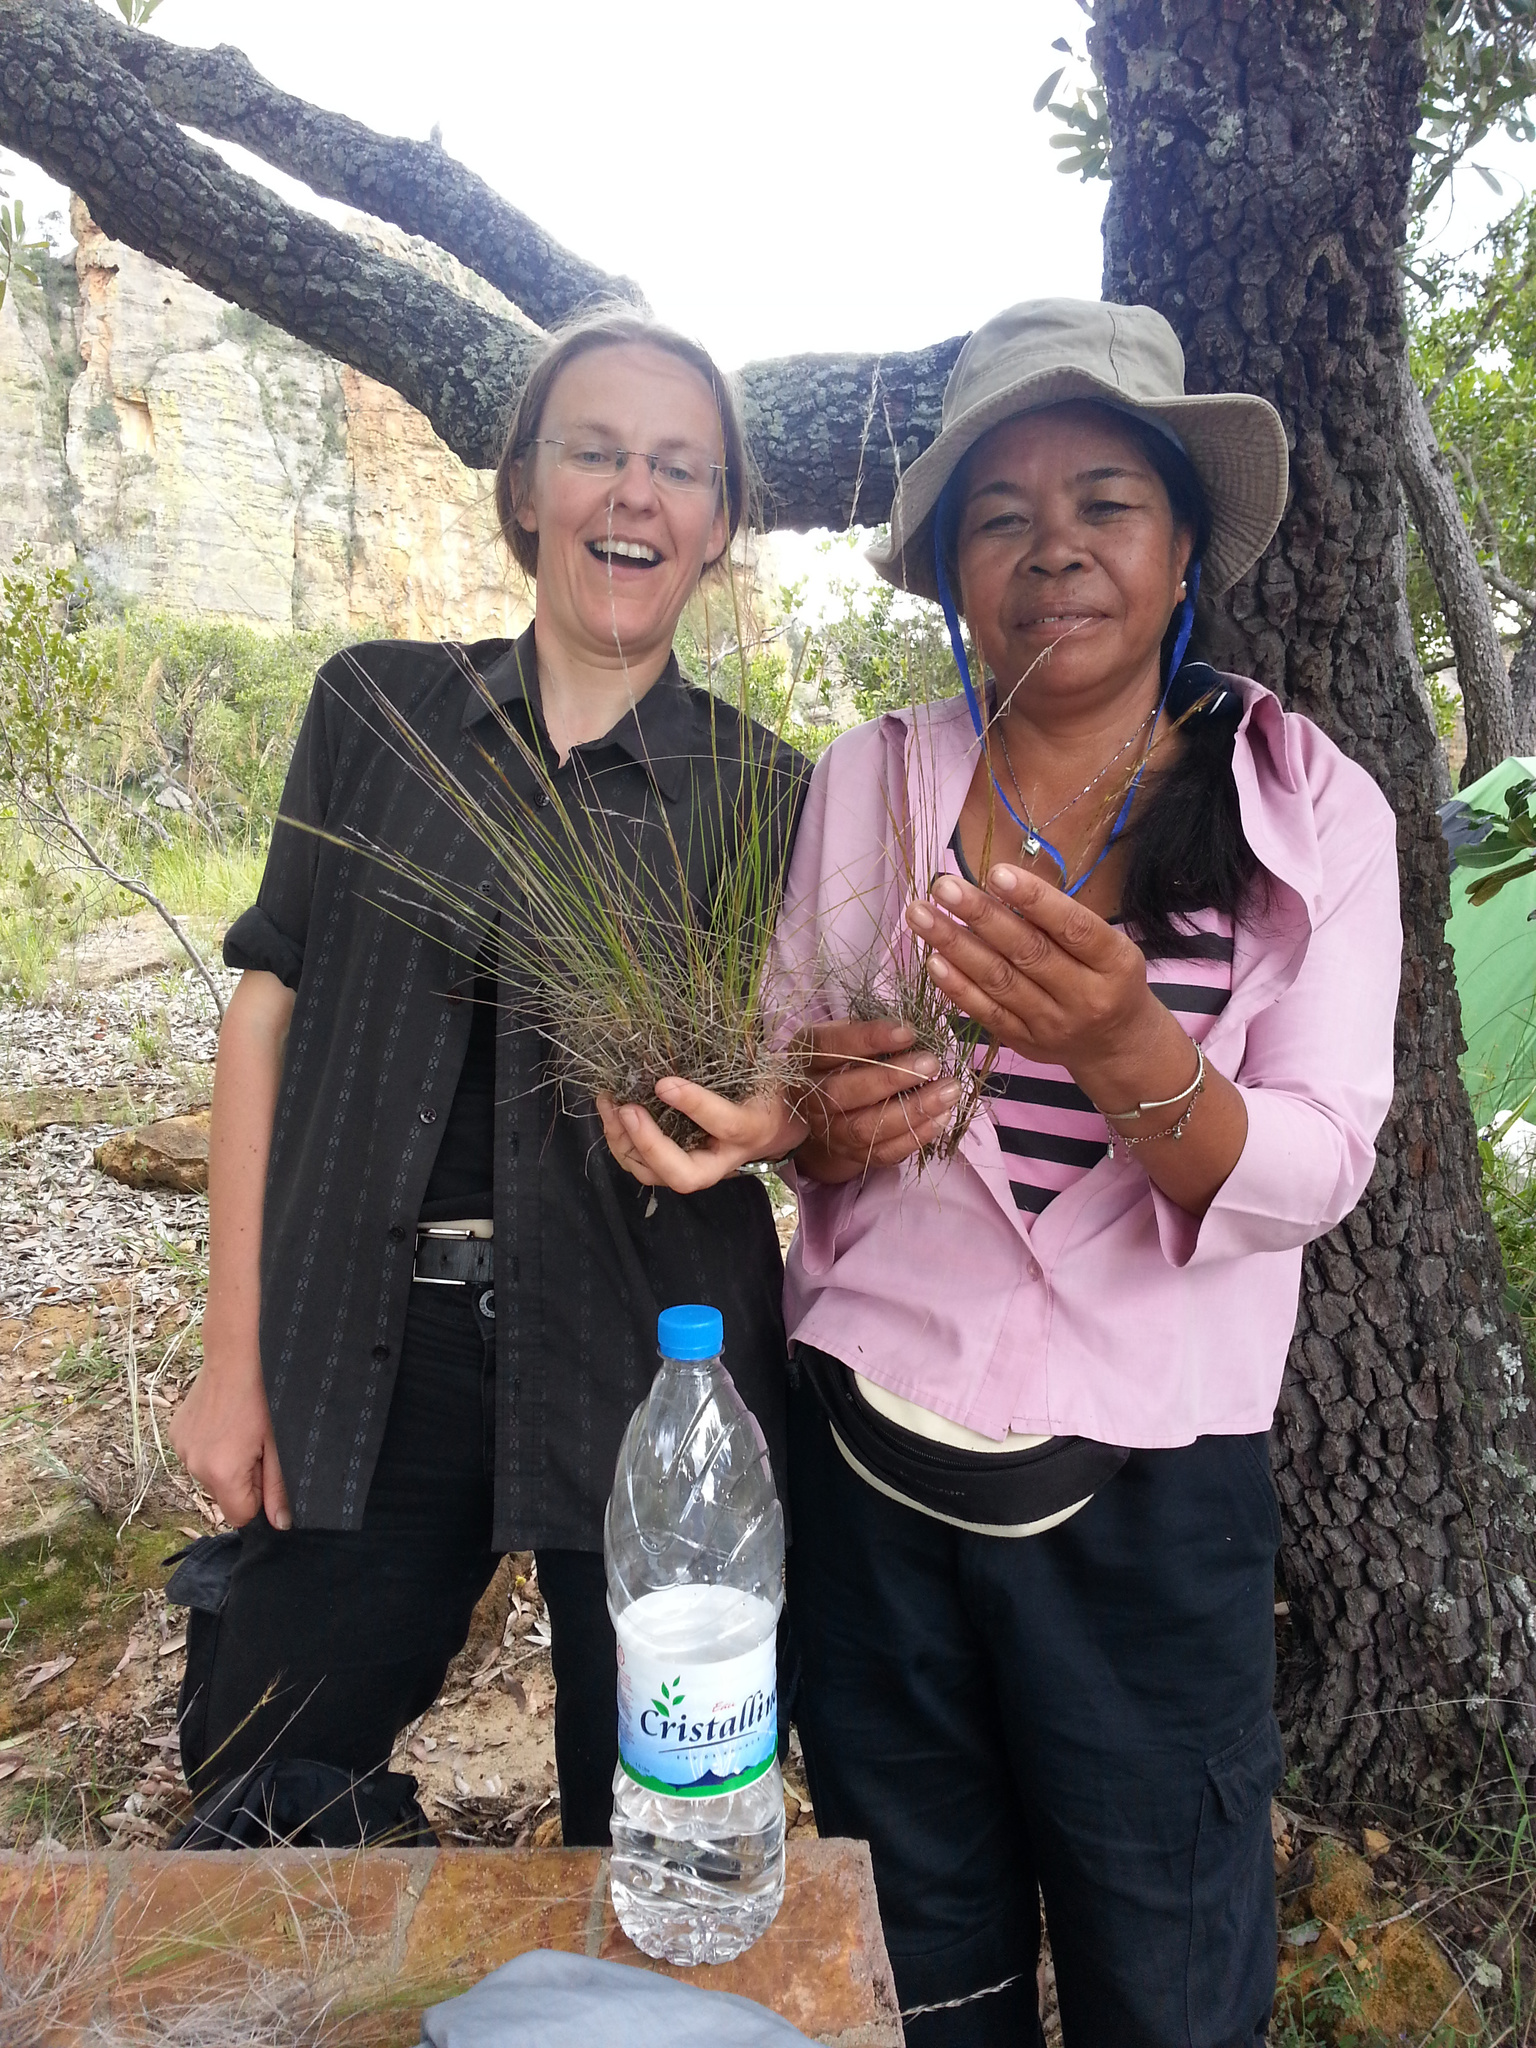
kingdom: Plantae
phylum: Tracheophyta
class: Liliopsida
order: Poales
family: Poaceae
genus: Sartidia
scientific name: Sartidia isaloensis
